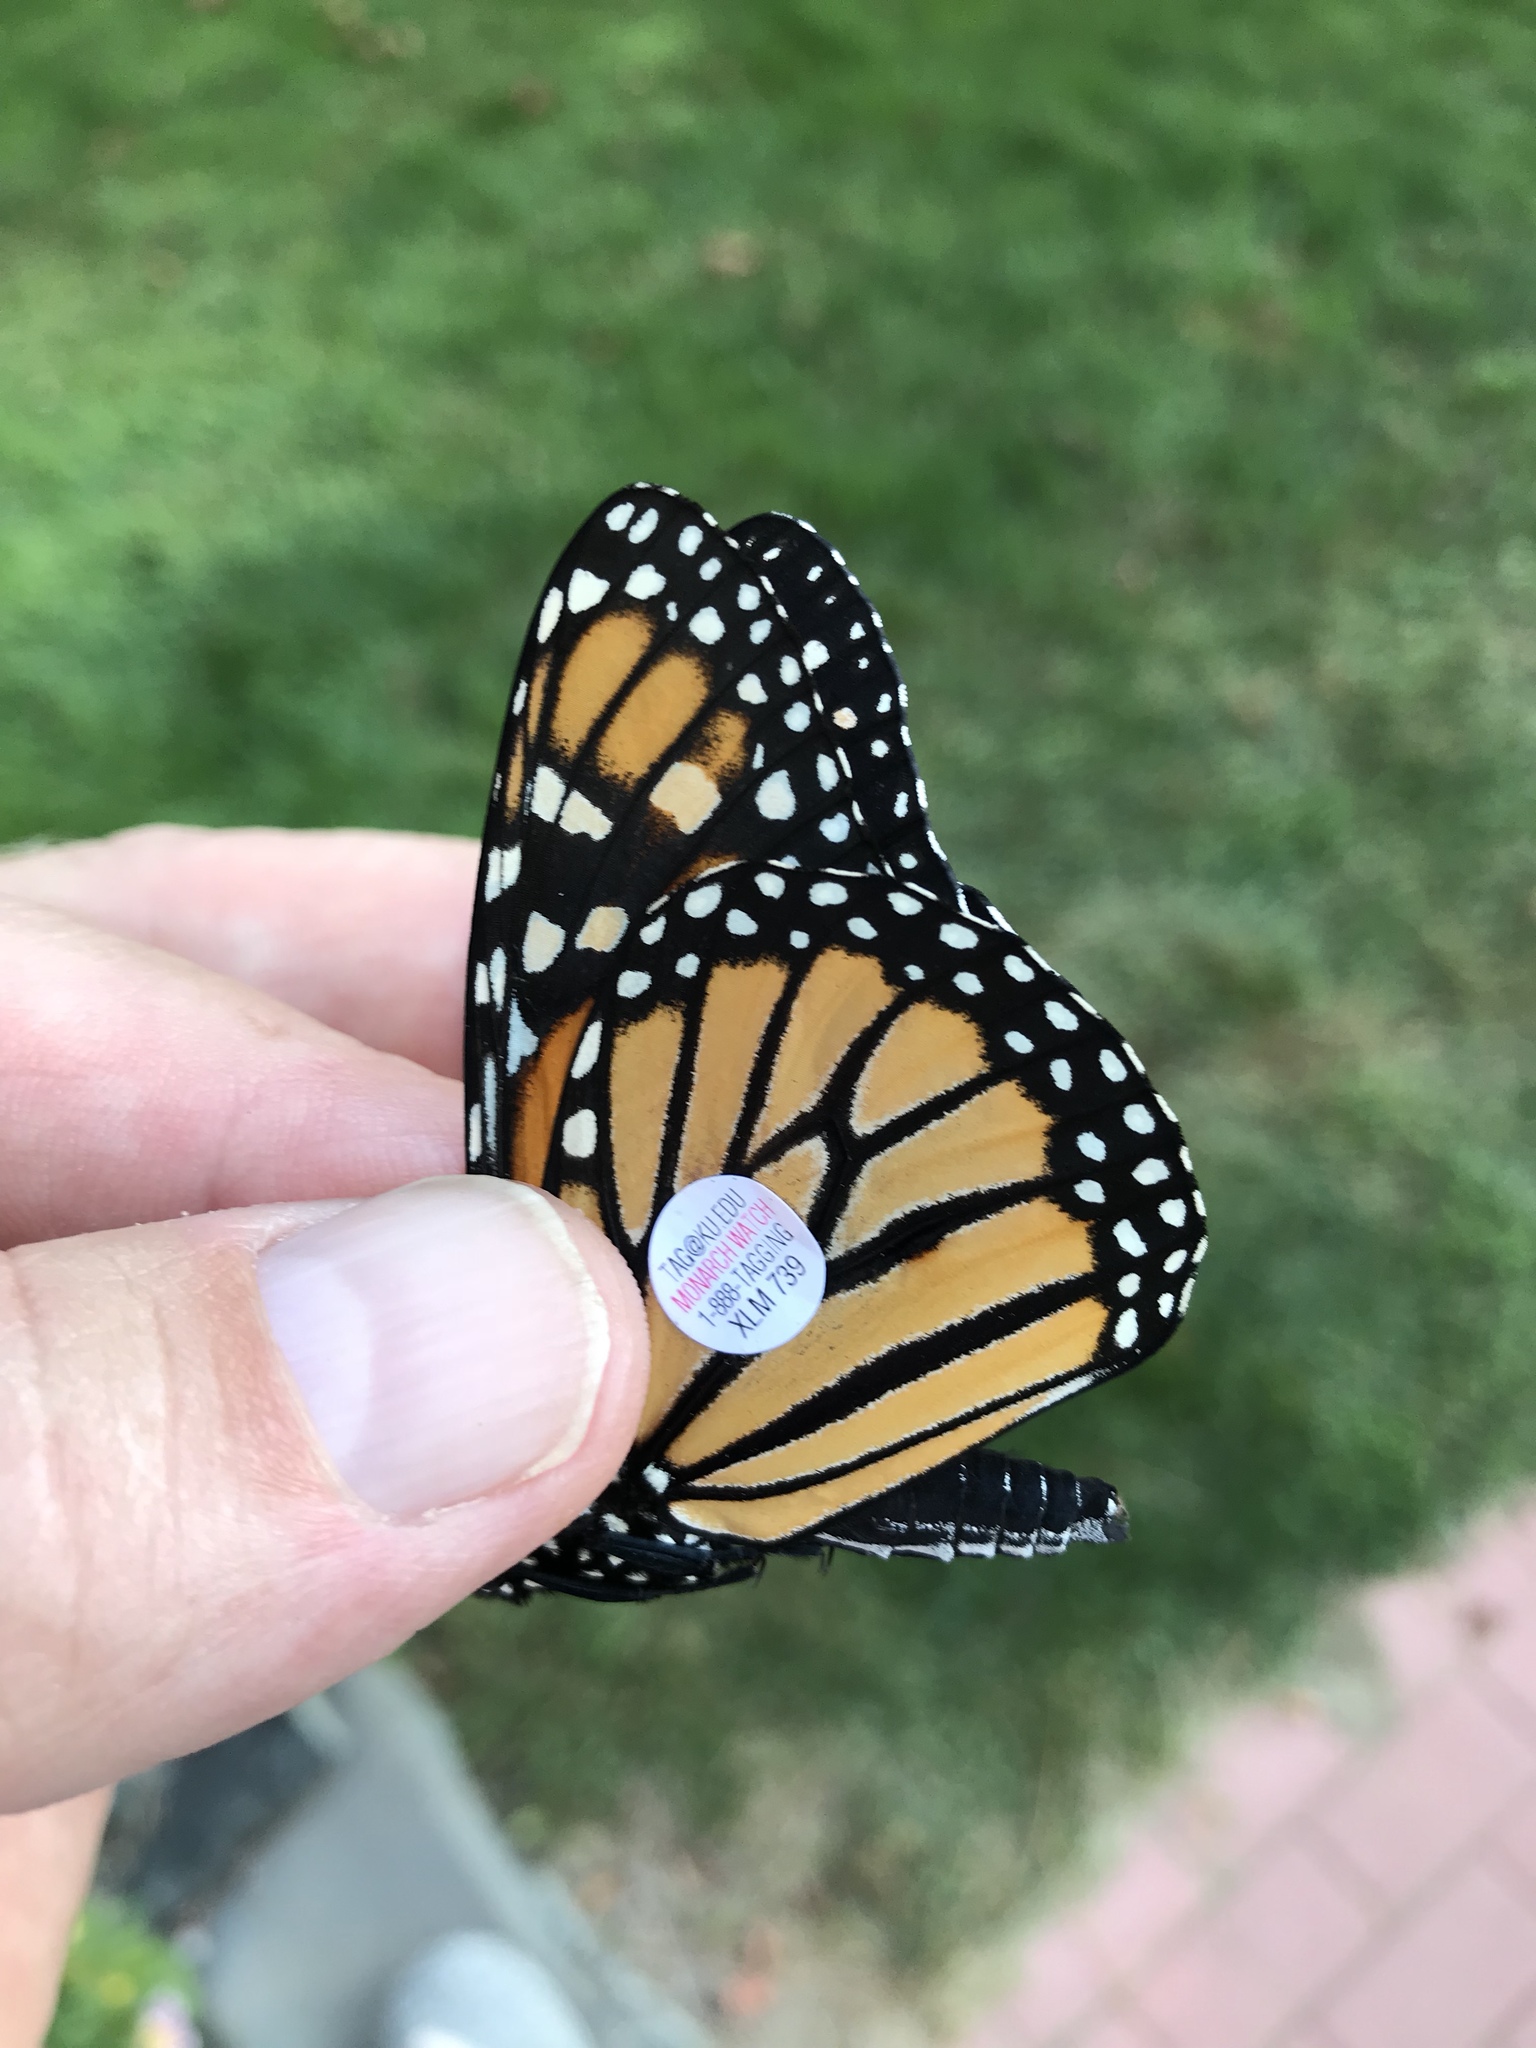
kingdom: Animalia
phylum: Arthropoda
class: Insecta
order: Lepidoptera
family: Nymphalidae
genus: Danaus
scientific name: Danaus plexippus
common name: Monarch
